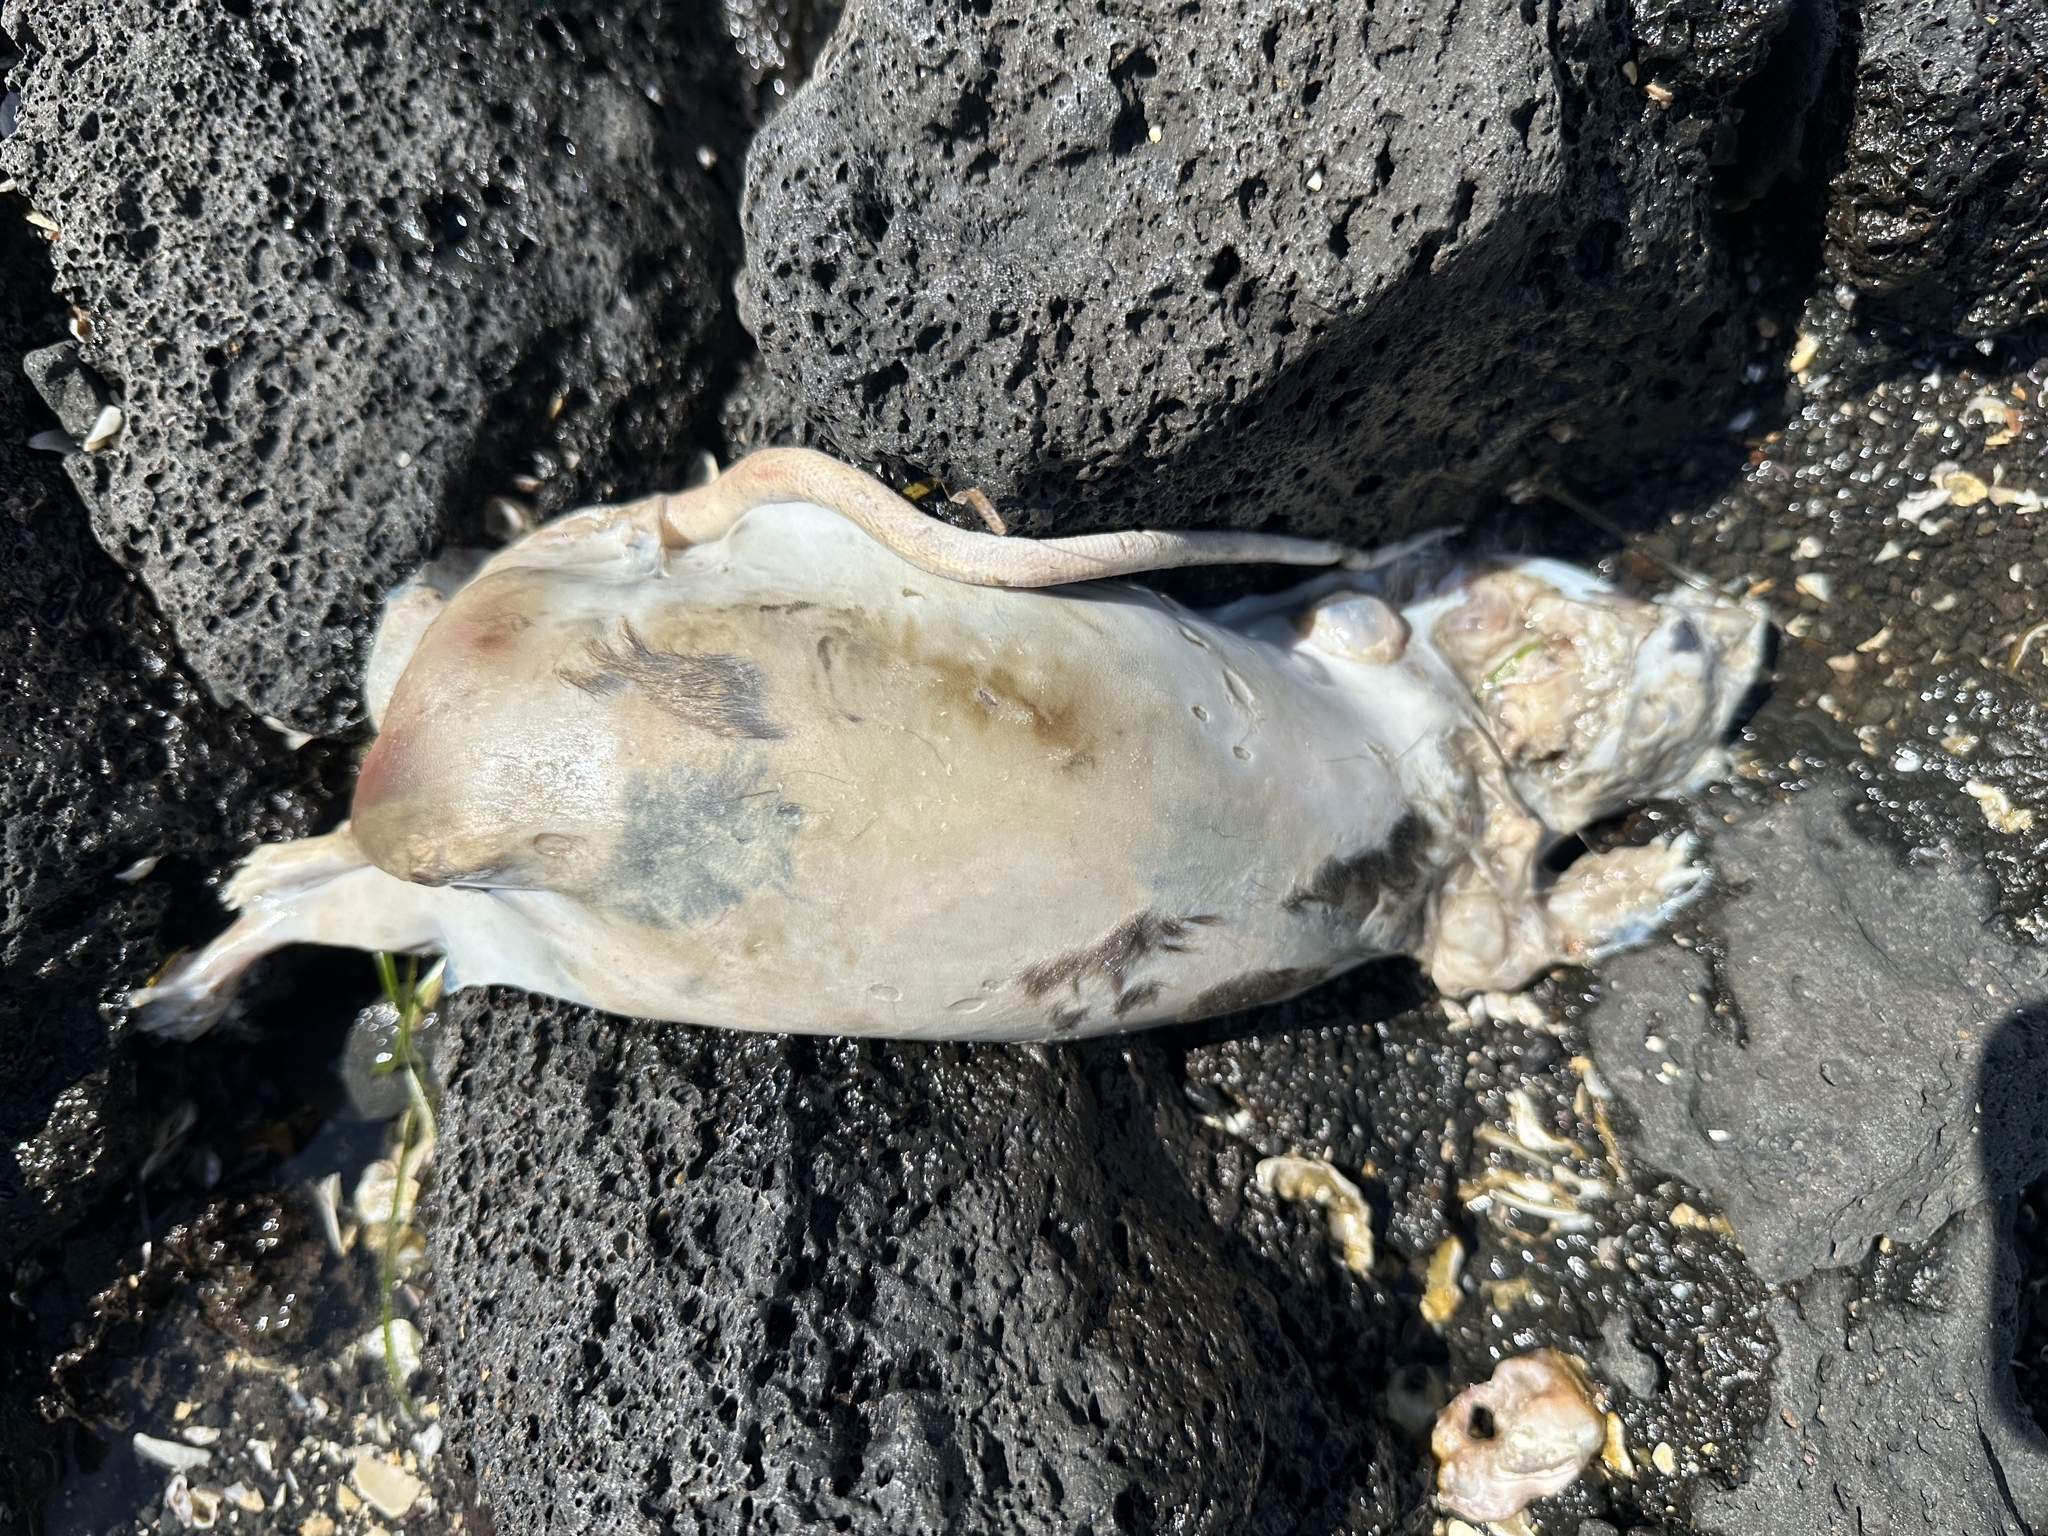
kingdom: Animalia
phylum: Chordata
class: Mammalia
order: Rodentia
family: Muridae
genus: Rattus
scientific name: Rattus norvegicus
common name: Brown rat
